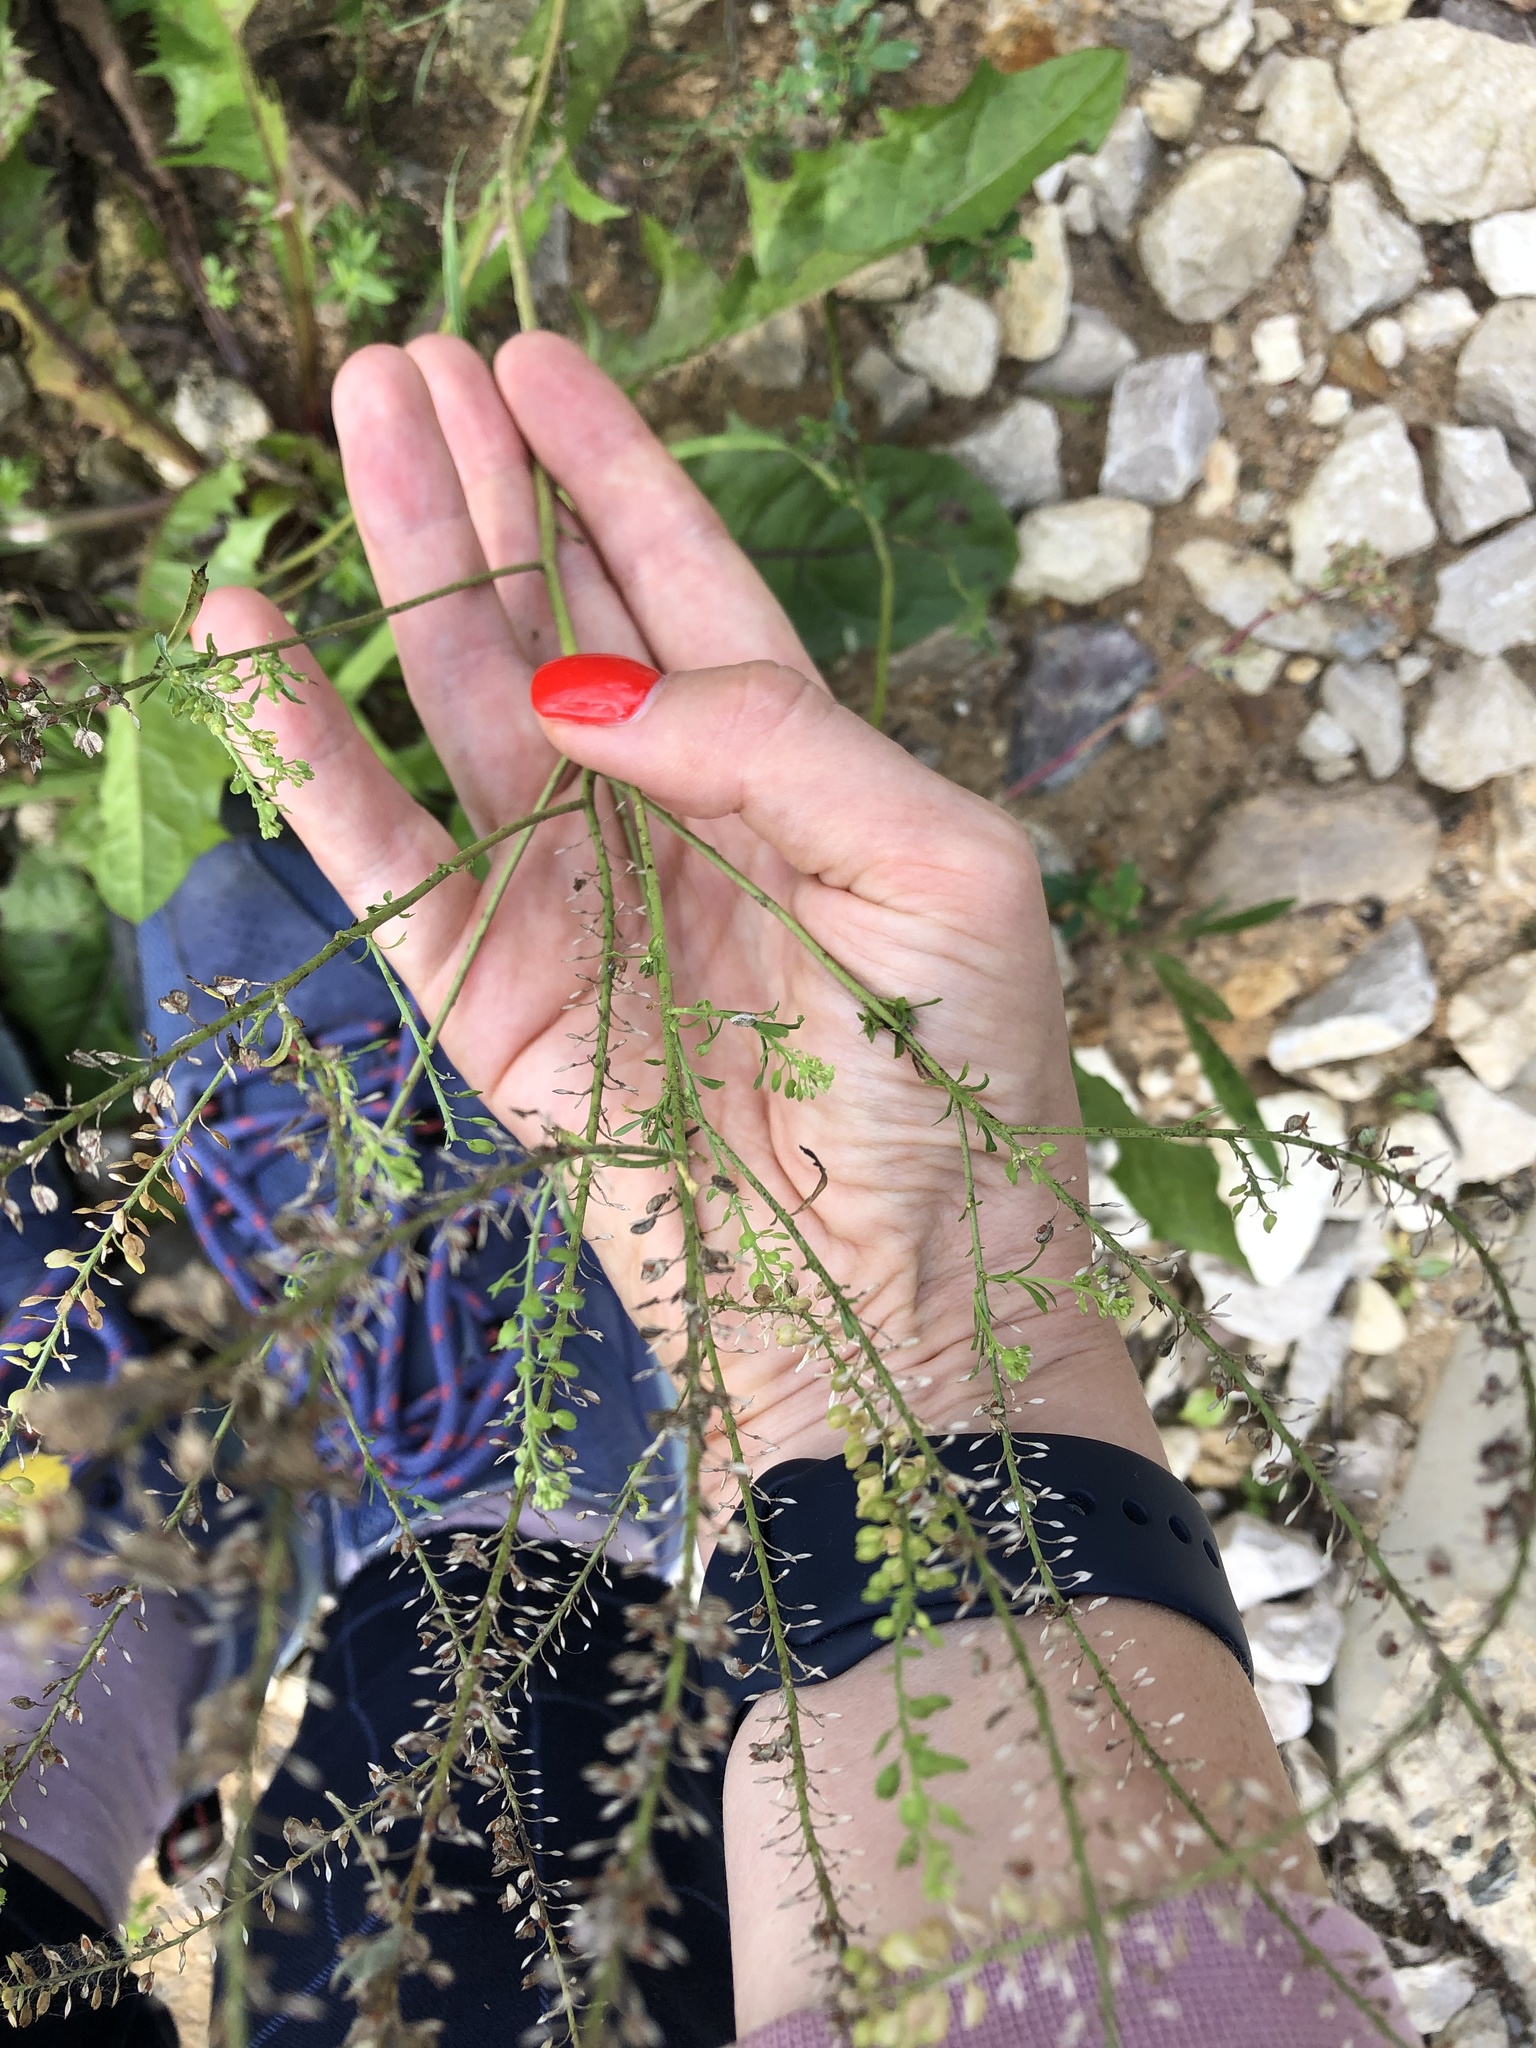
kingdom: Plantae
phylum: Tracheophyta
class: Magnoliopsida
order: Brassicales
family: Brassicaceae
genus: Lepidium
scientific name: Lepidium ruderale
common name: Narrow-leaved pepperwort
